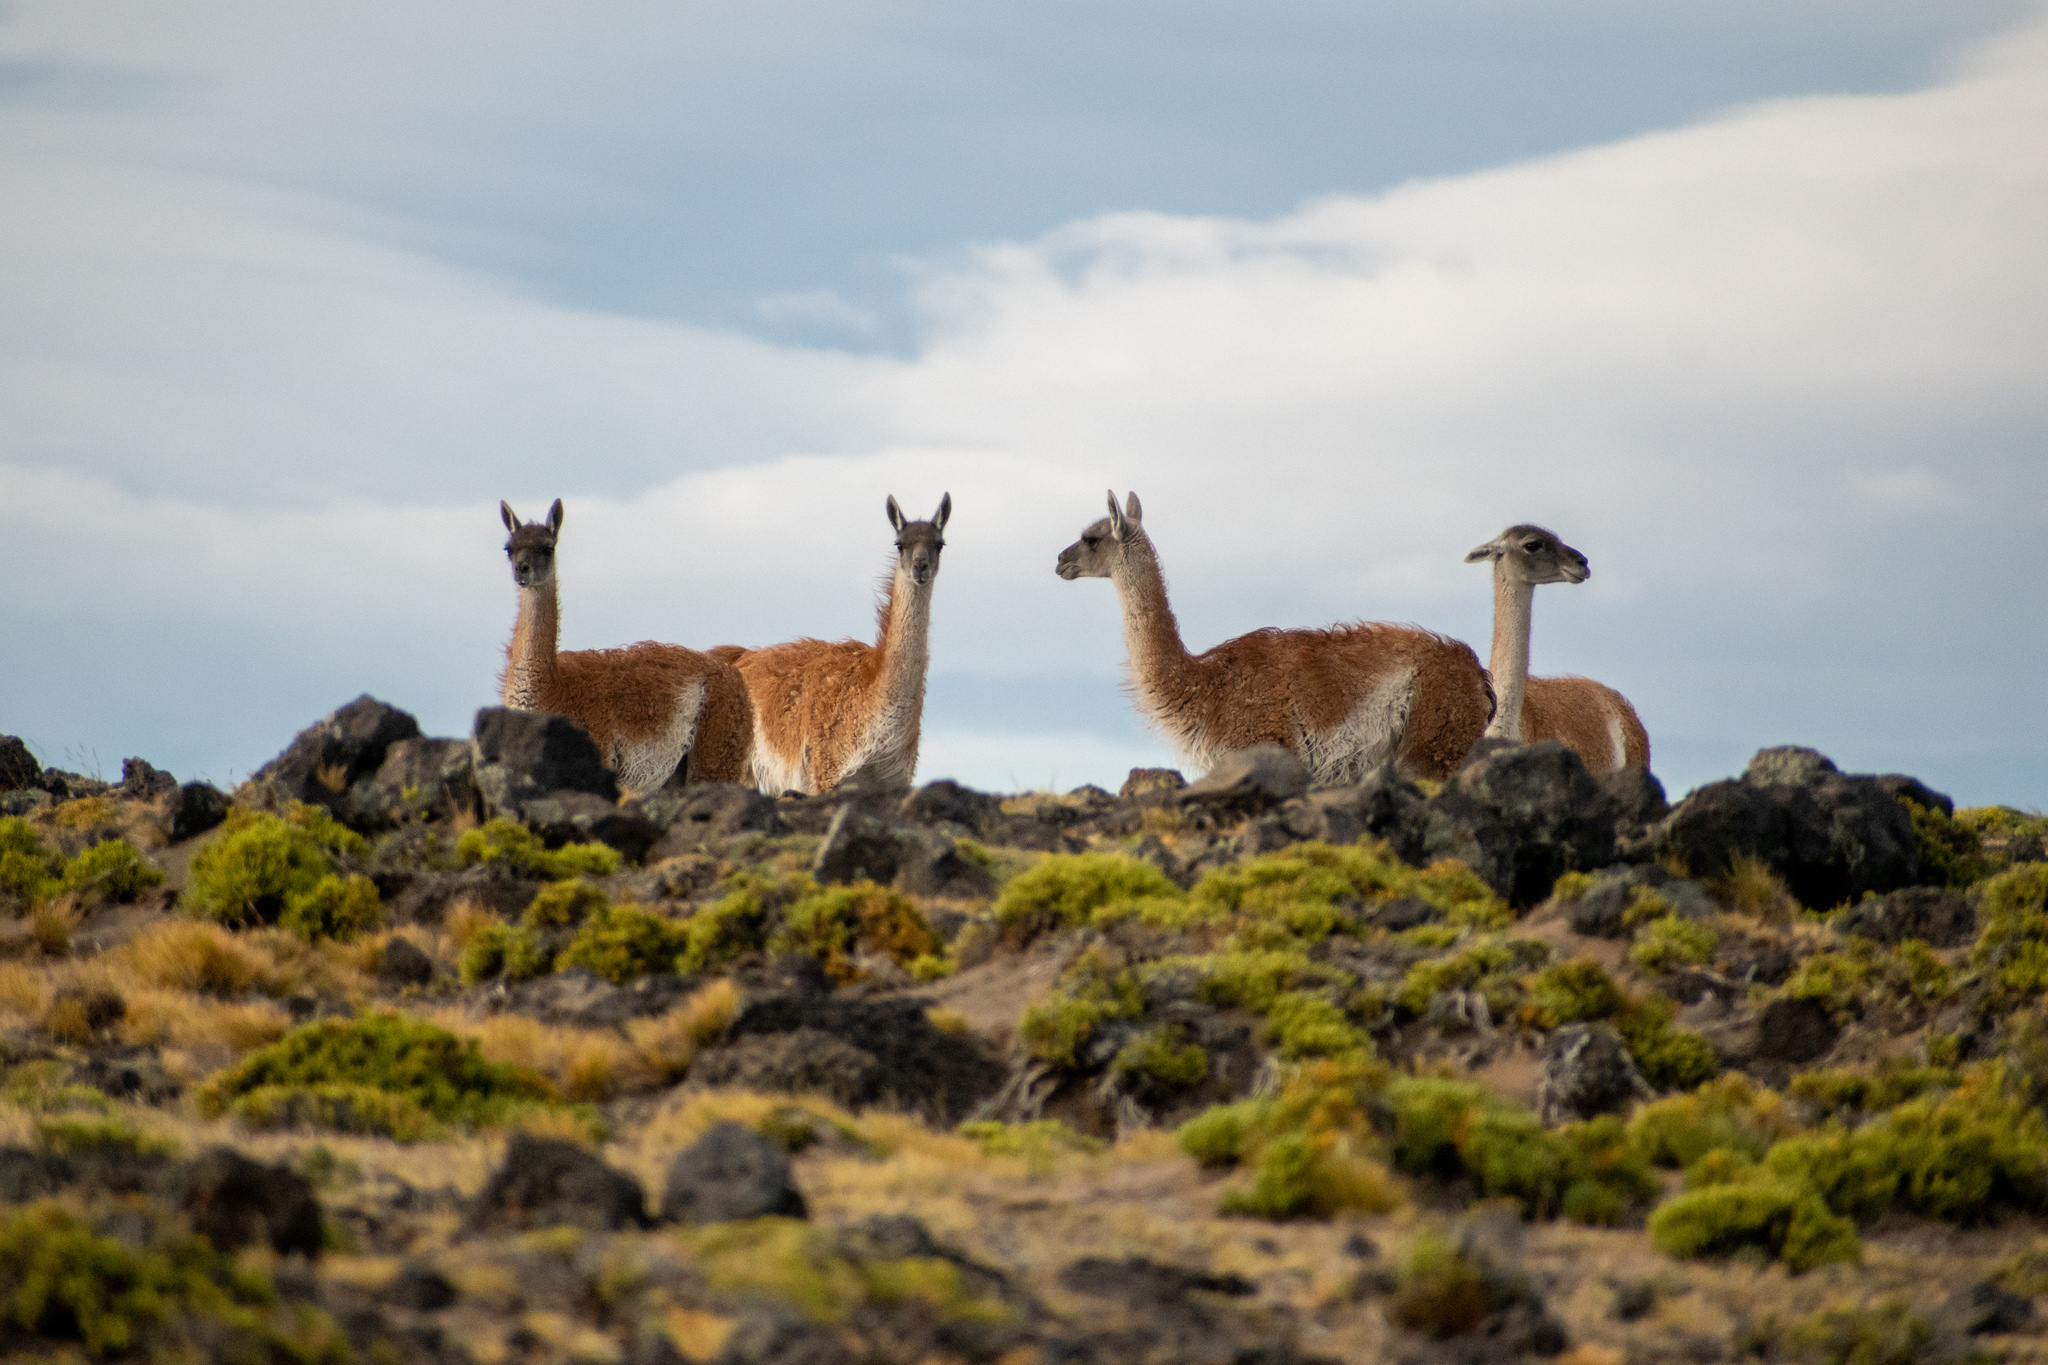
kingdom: Animalia
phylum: Chordata
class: Mammalia
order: Artiodactyla
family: Camelidae
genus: Lama
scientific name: Lama glama
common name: Llama
